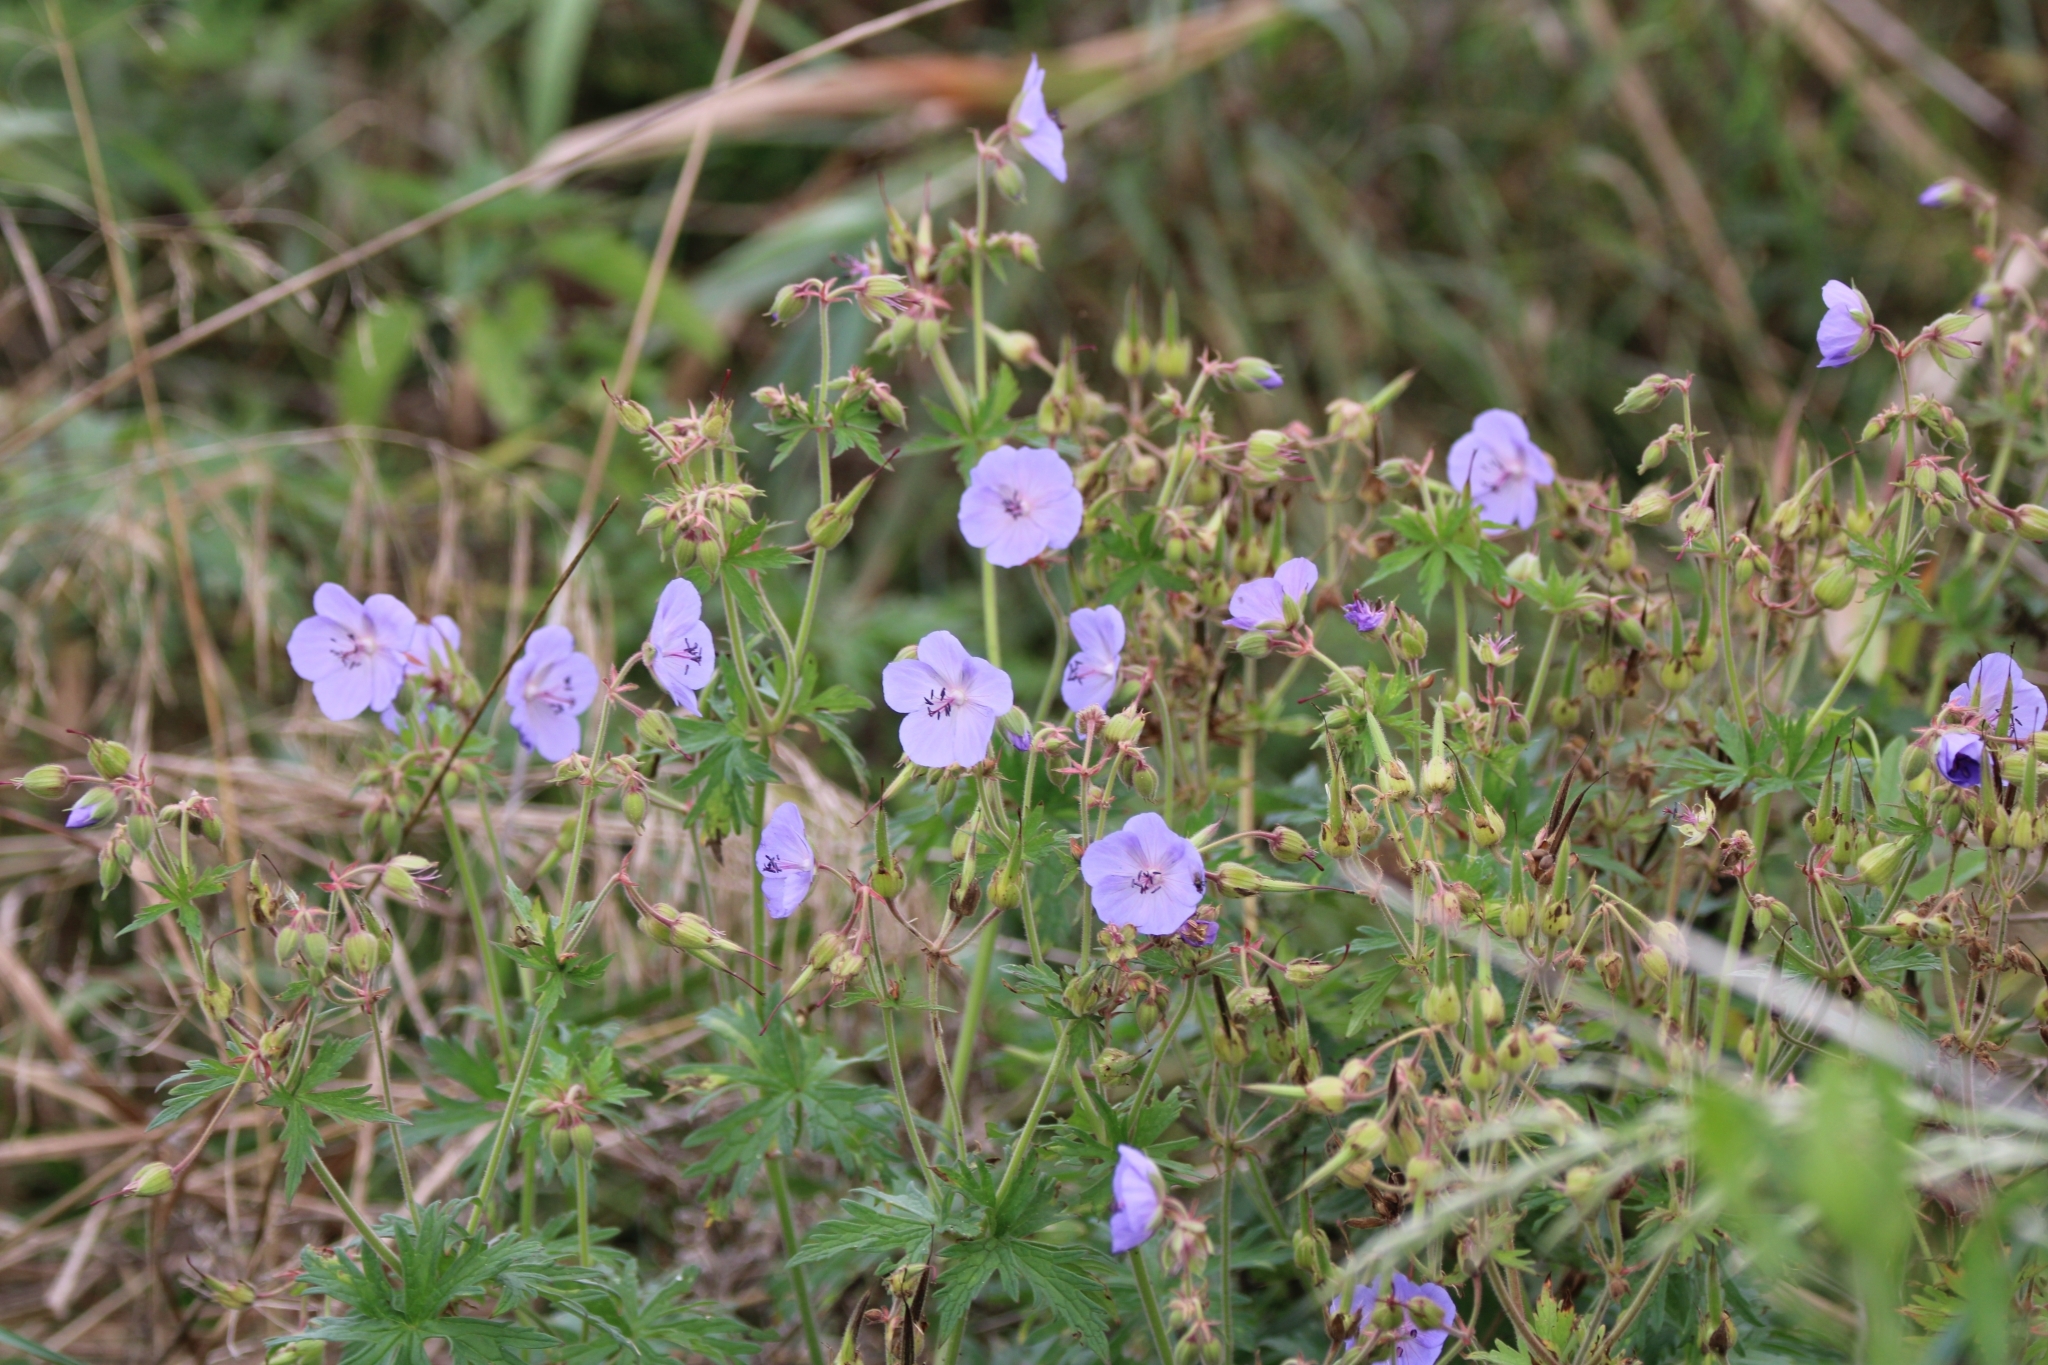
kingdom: Plantae
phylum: Tracheophyta
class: Magnoliopsida
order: Geraniales
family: Geraniaceae
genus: Geranium
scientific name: Geranium pratense
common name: Meadow crane's-bill
